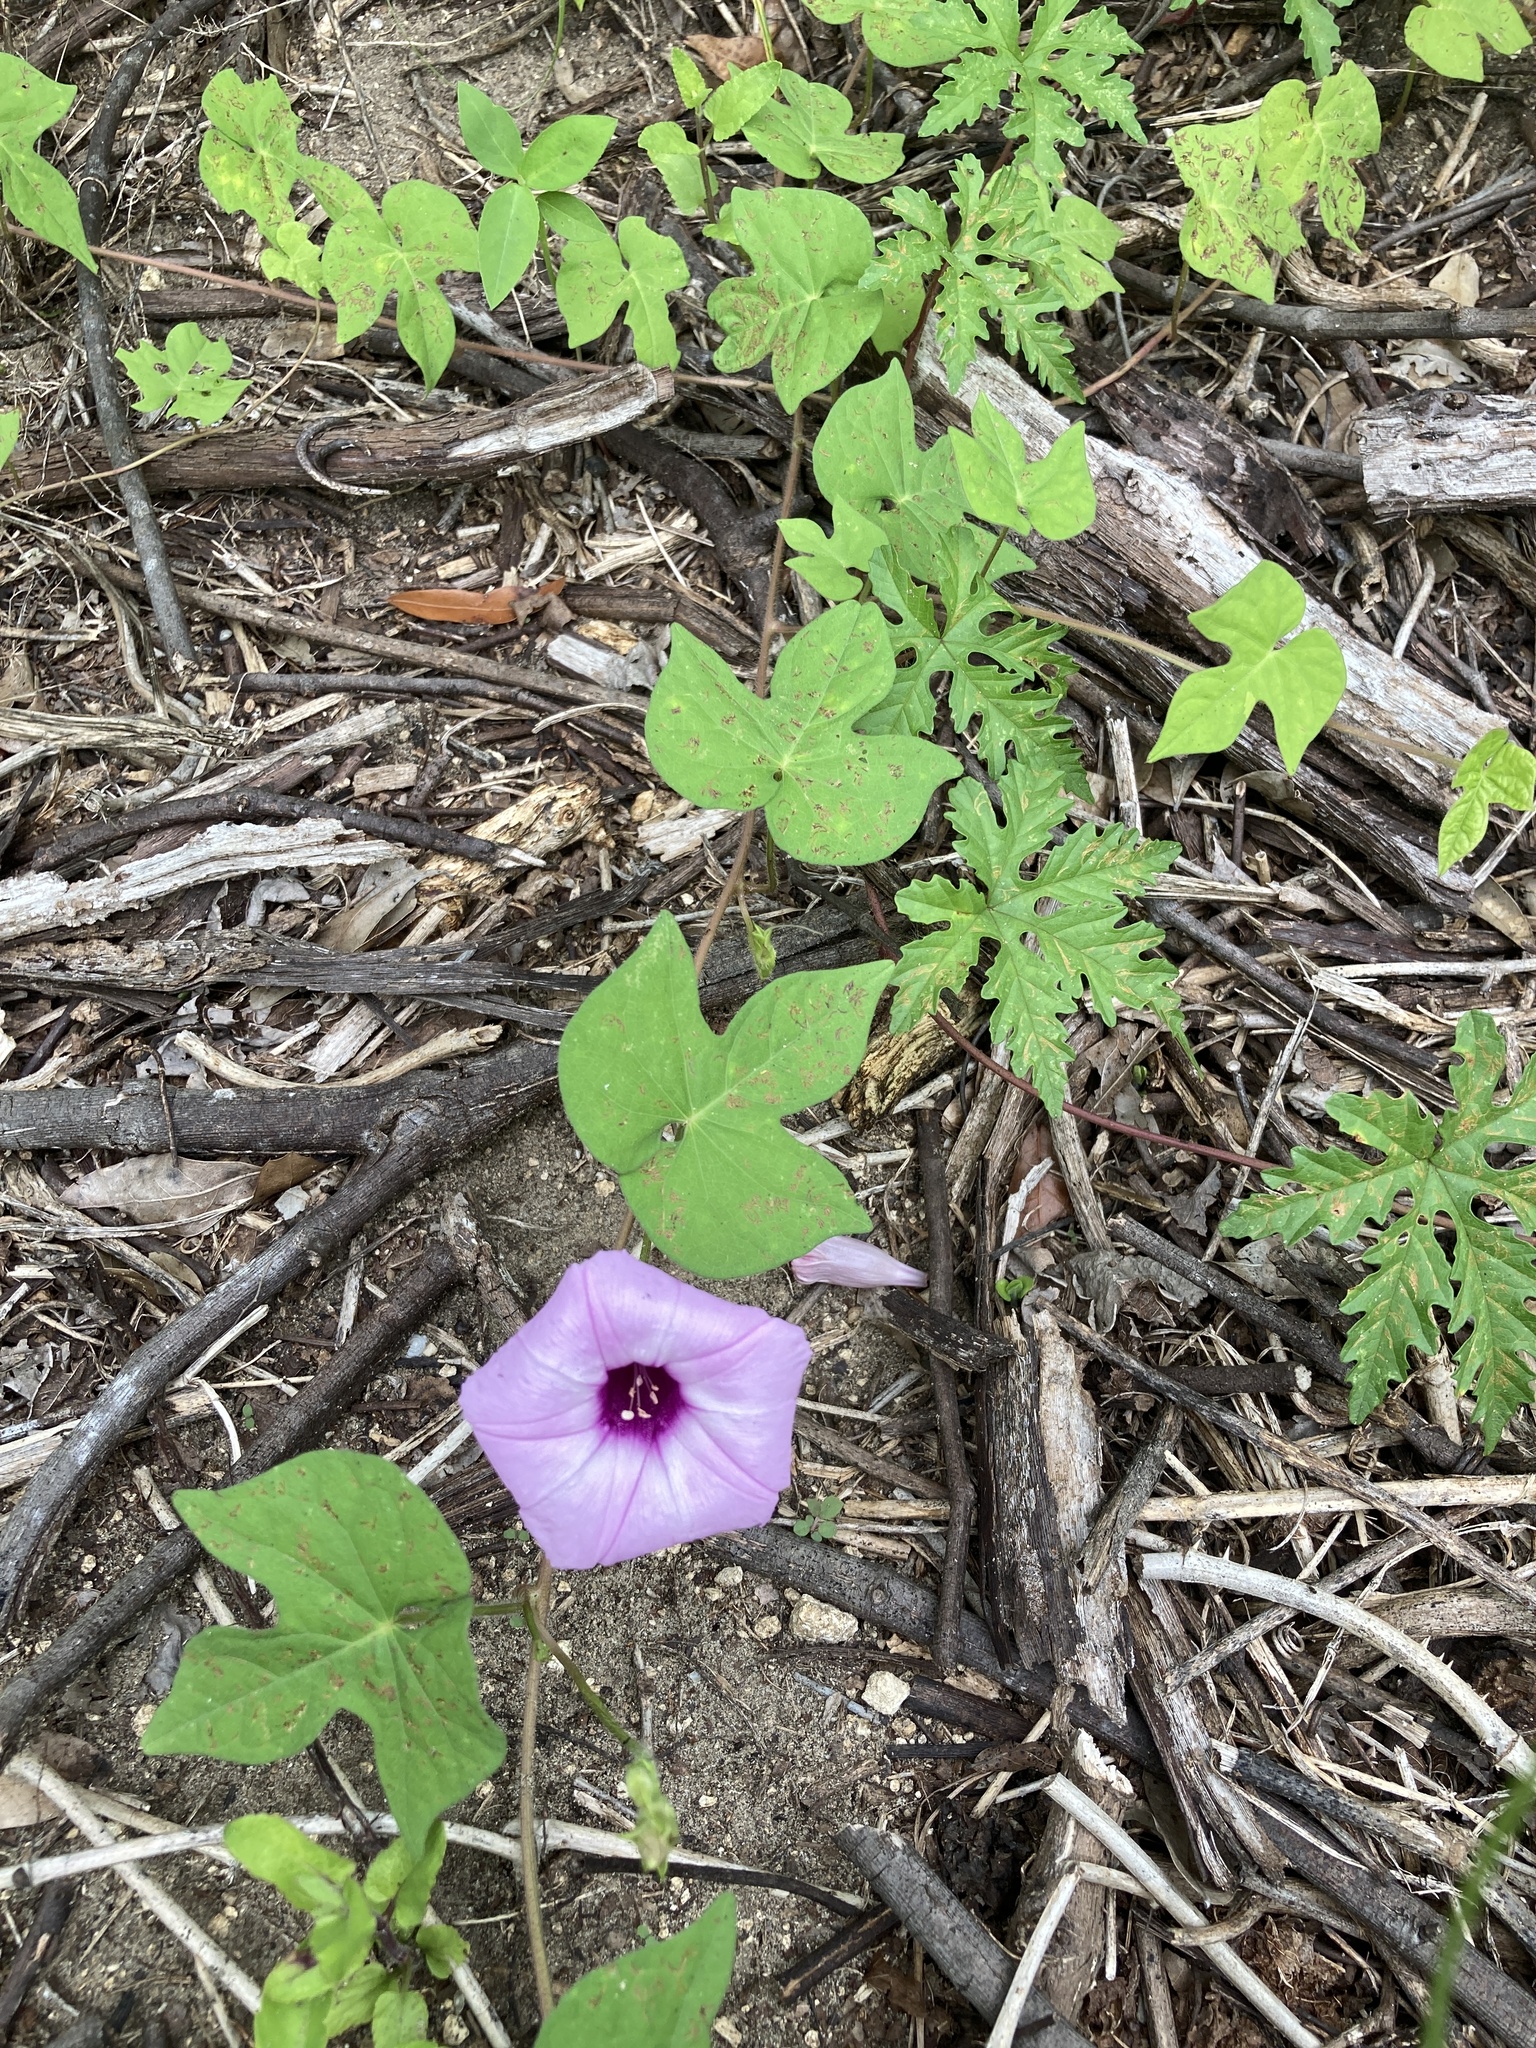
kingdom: Plantae
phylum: Tracheophyta
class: Magnoliopsida
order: Solanales
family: Convolvulaceae
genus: Ipomoea
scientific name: Ipomoea cordatotriloba
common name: Cotton morning glory
